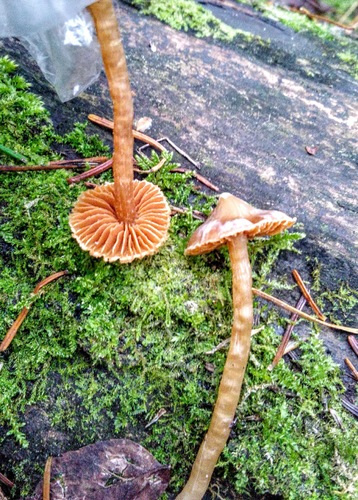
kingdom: Fungi
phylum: Basidiomycota
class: Agaricomycetes
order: Agaricales
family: Agaricaceae
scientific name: Agaricaceae
